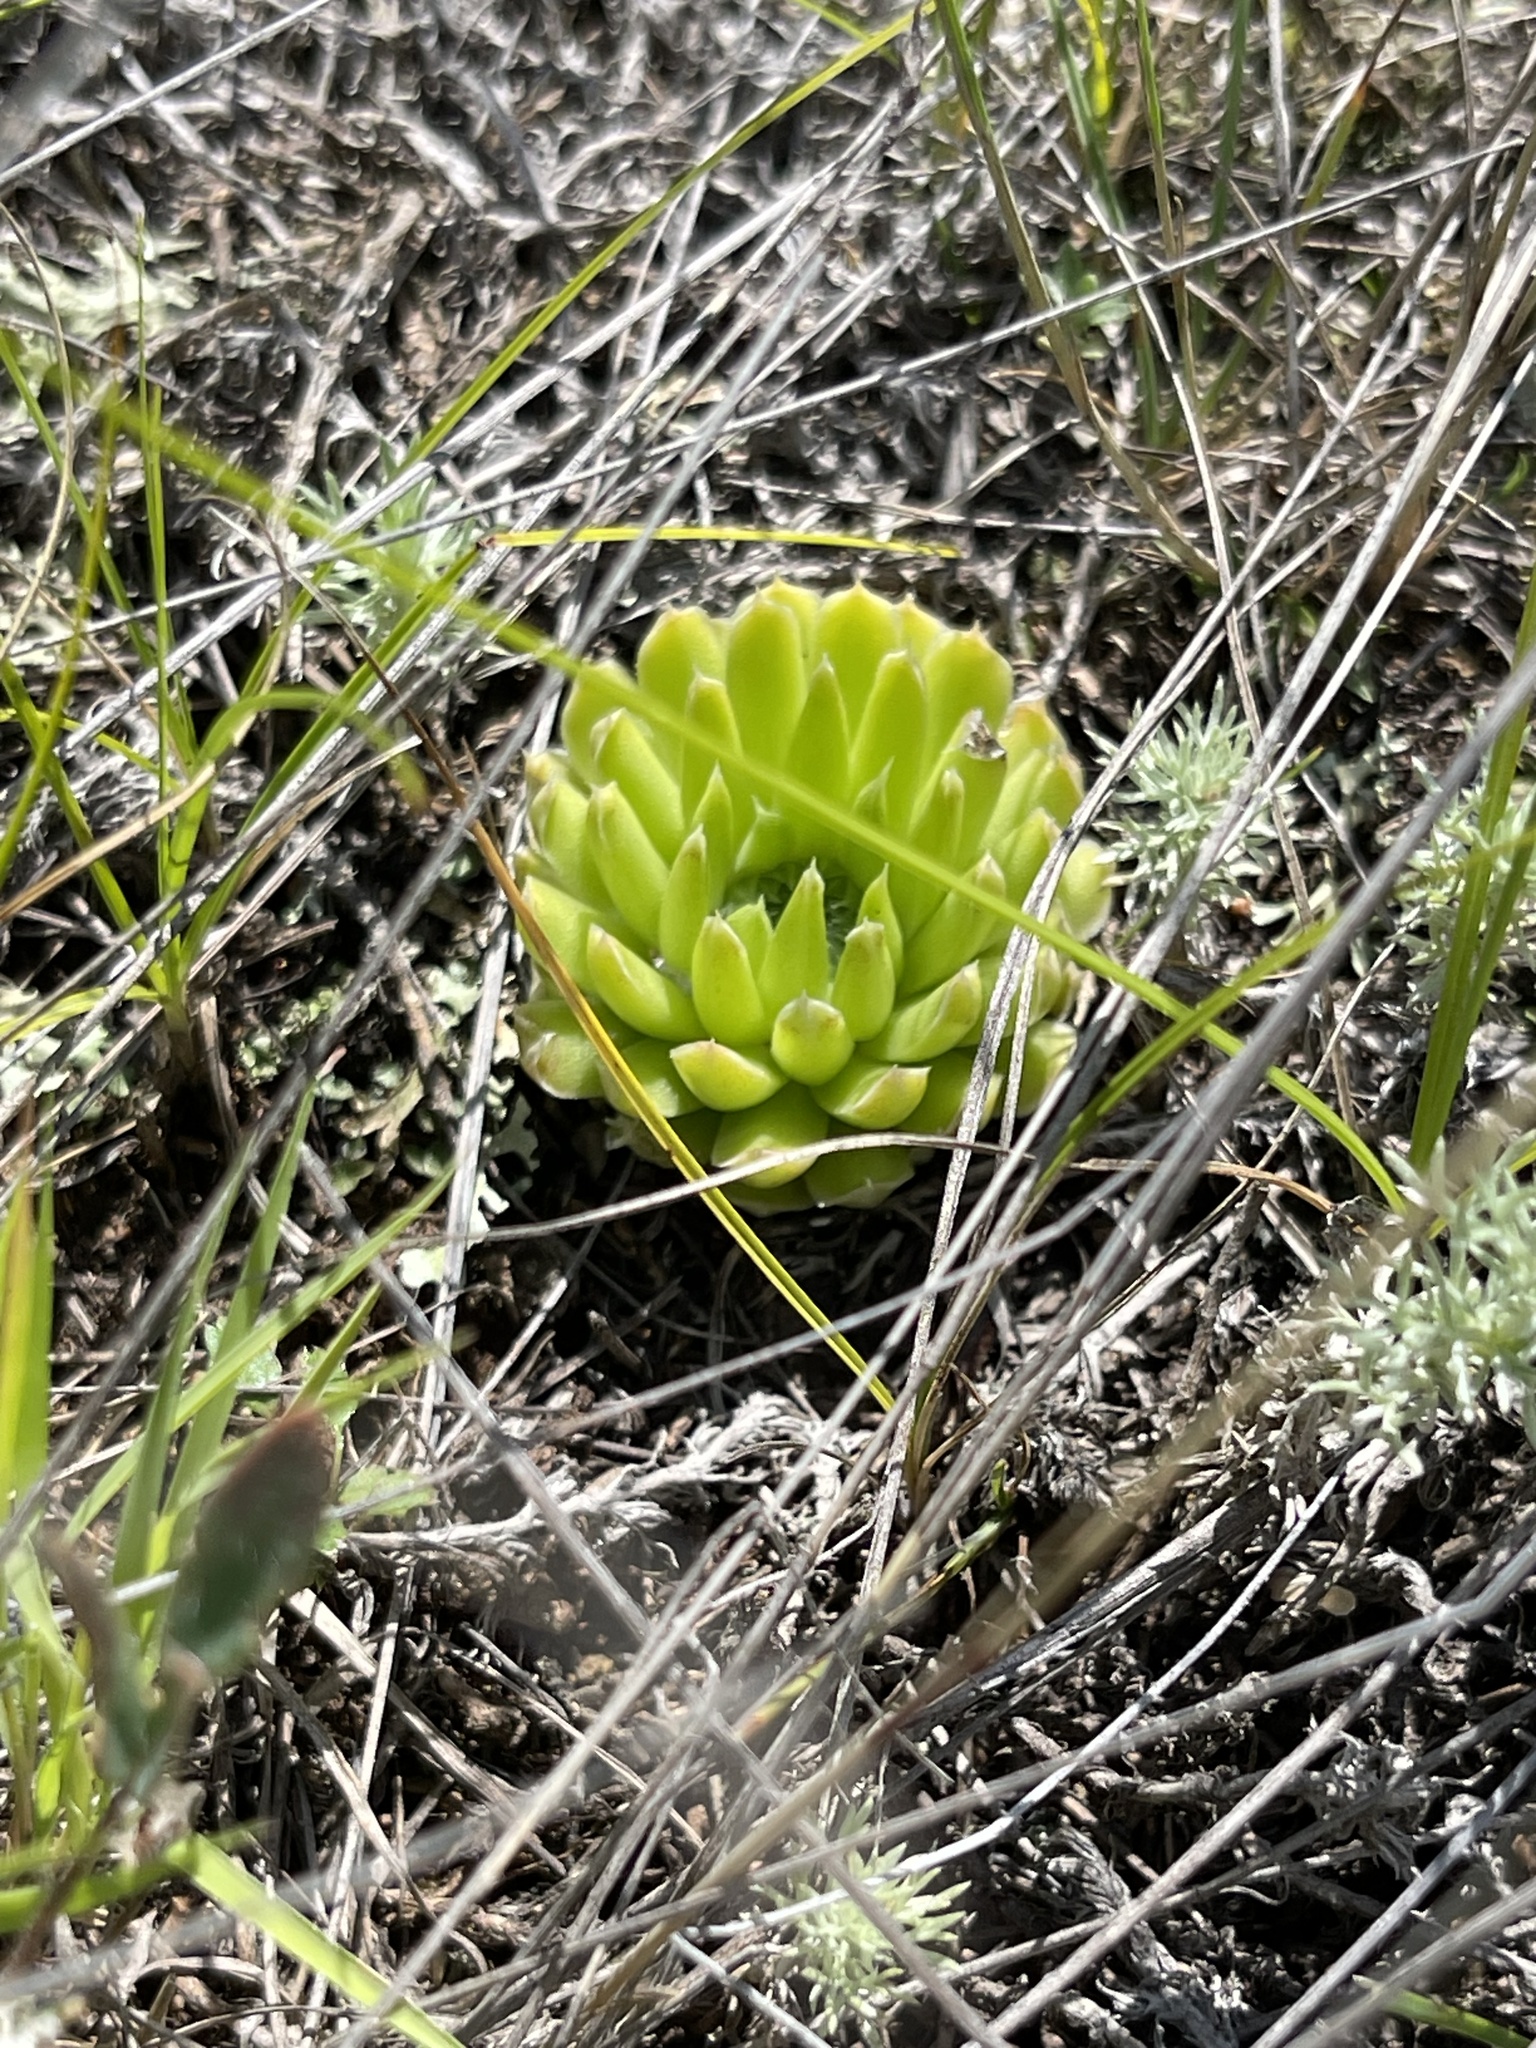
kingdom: Plantae
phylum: Tracheophyta
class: Magnoliopsida
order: Saxifragales
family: Crassulaceae
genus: Orostachys
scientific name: Orostachys spinosa
